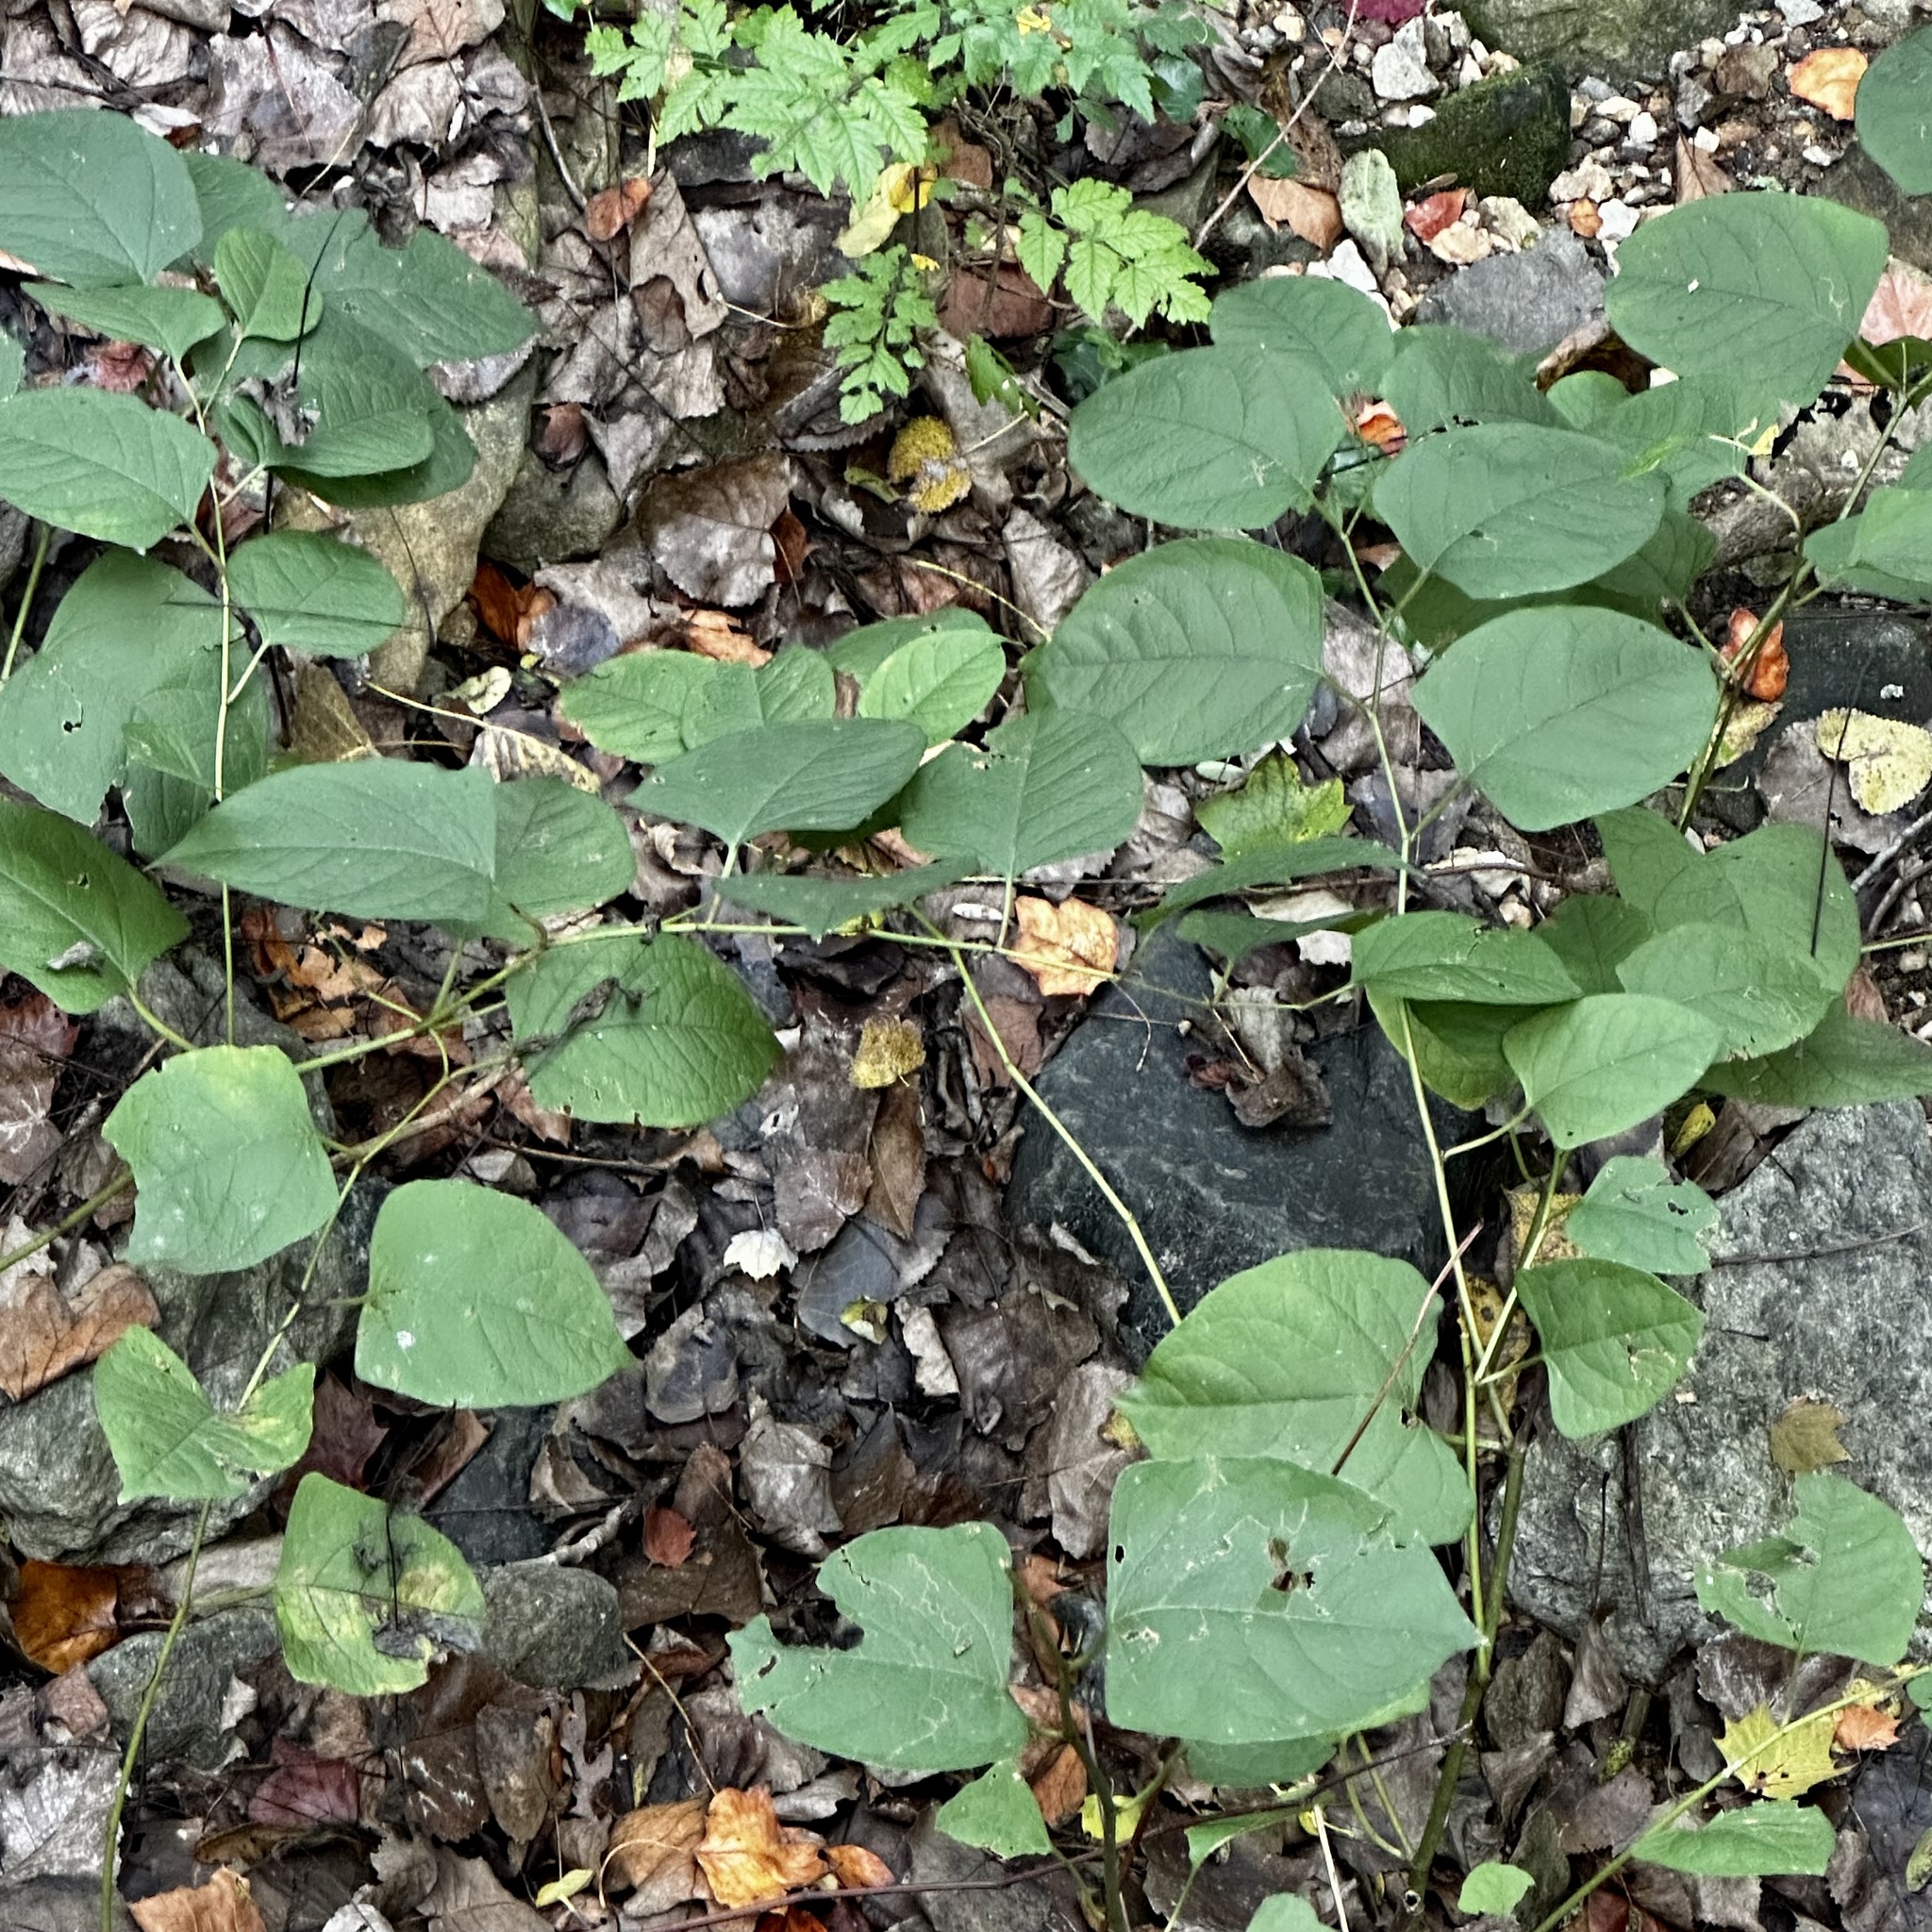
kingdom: Plantae
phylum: Tracheophyta
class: Magnoliopsida
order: Caryophyllales
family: Polygonaceae
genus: Reynoutria
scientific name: Reynoutria japonica
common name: Japanese knotweed
